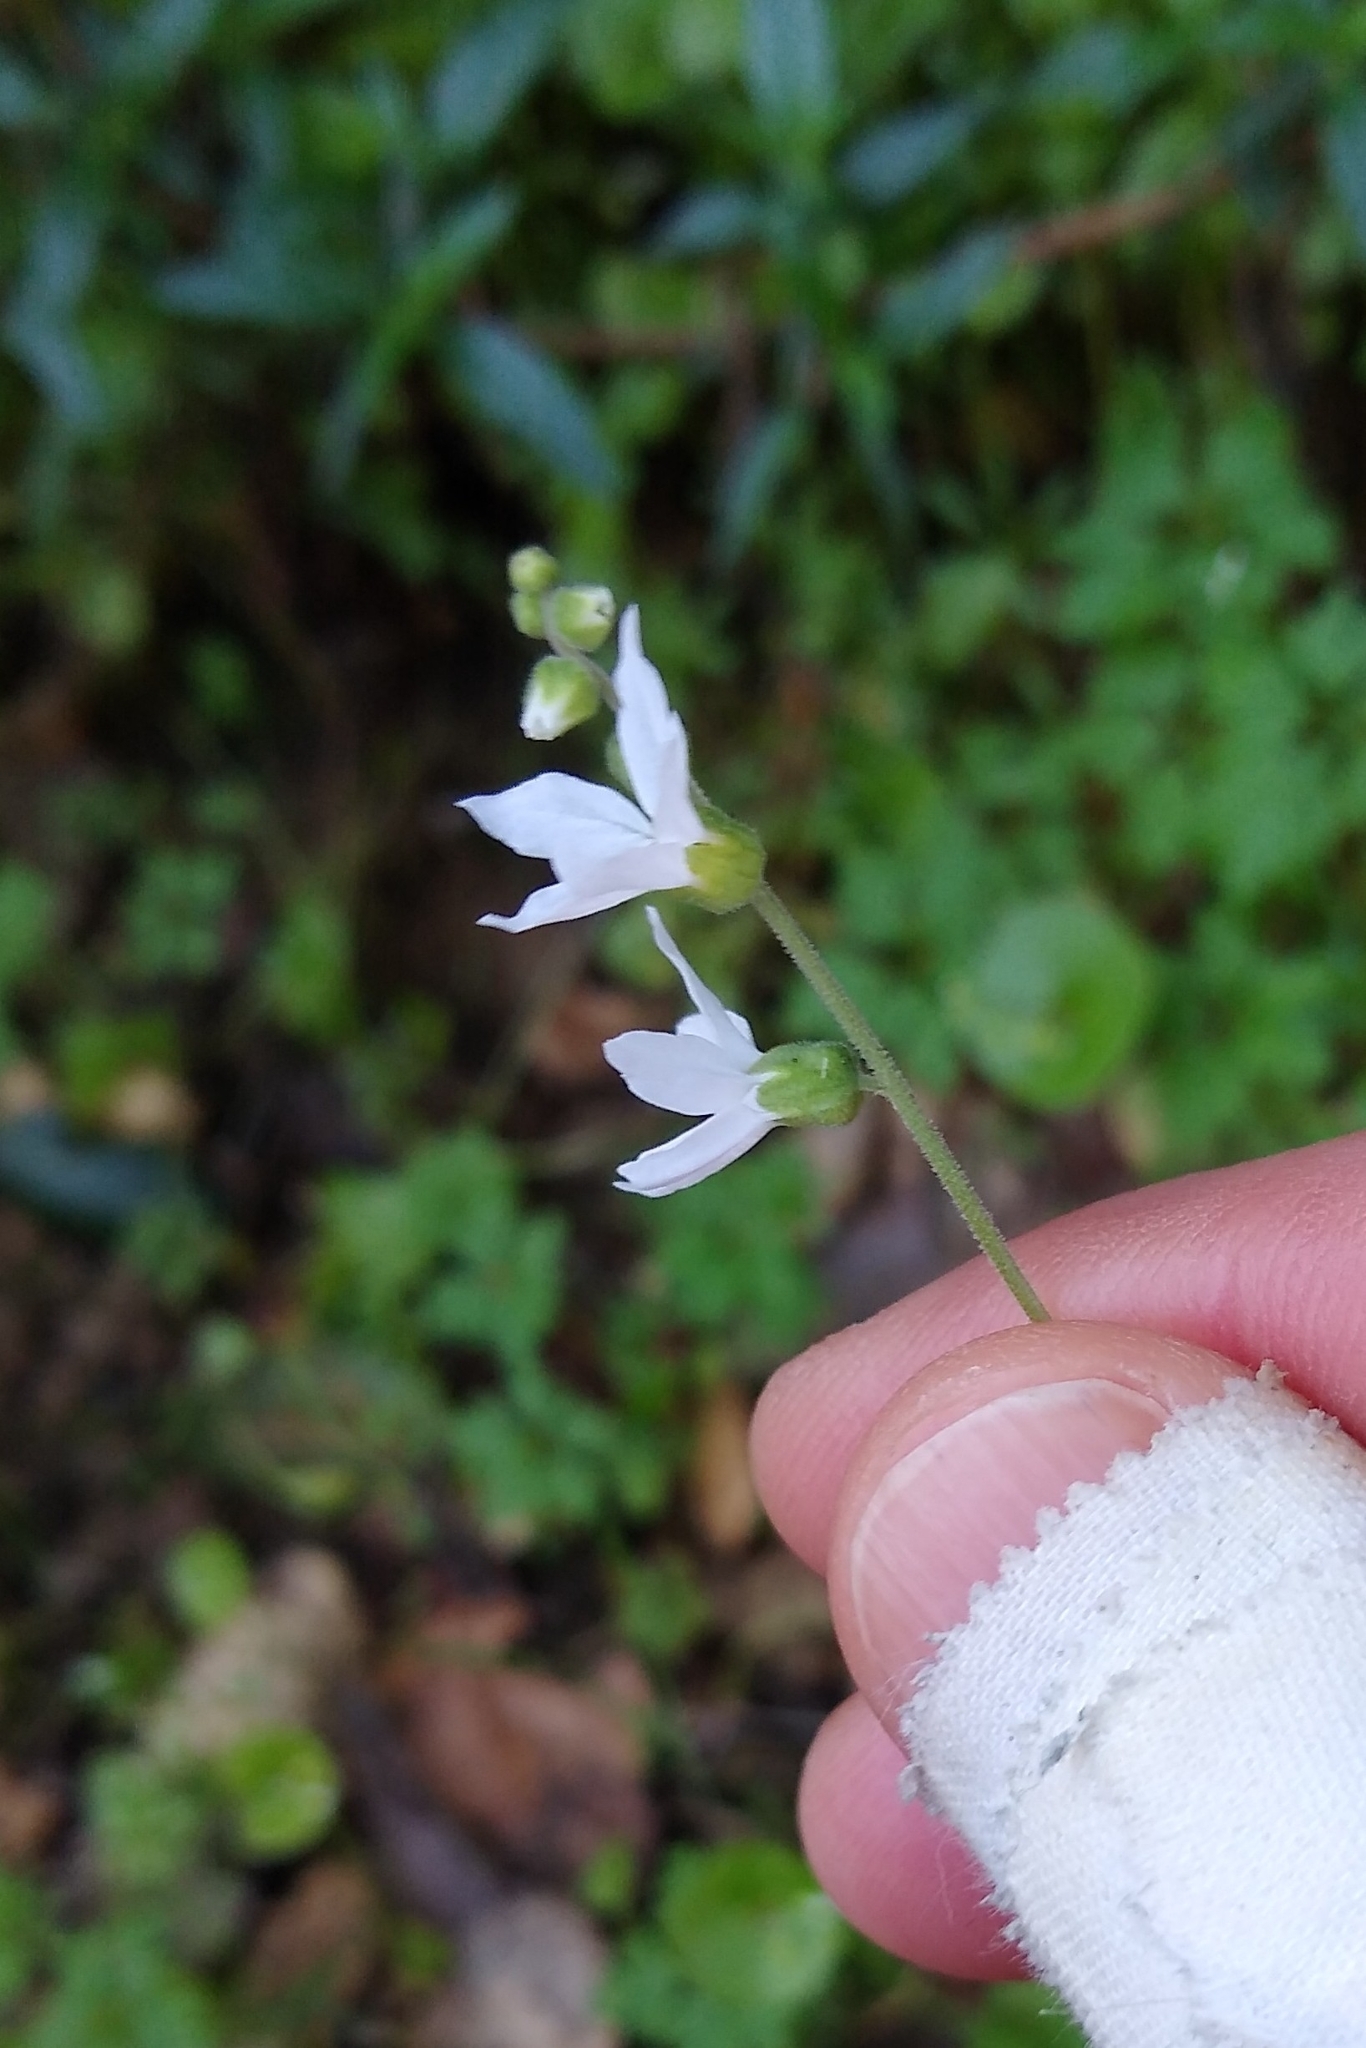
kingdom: Plantae
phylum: Tracheophyta
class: Magnoliopsida
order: Saxifragales
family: Saxifragaceae
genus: Lithophragma
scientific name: Lithophragma heterophyllum
